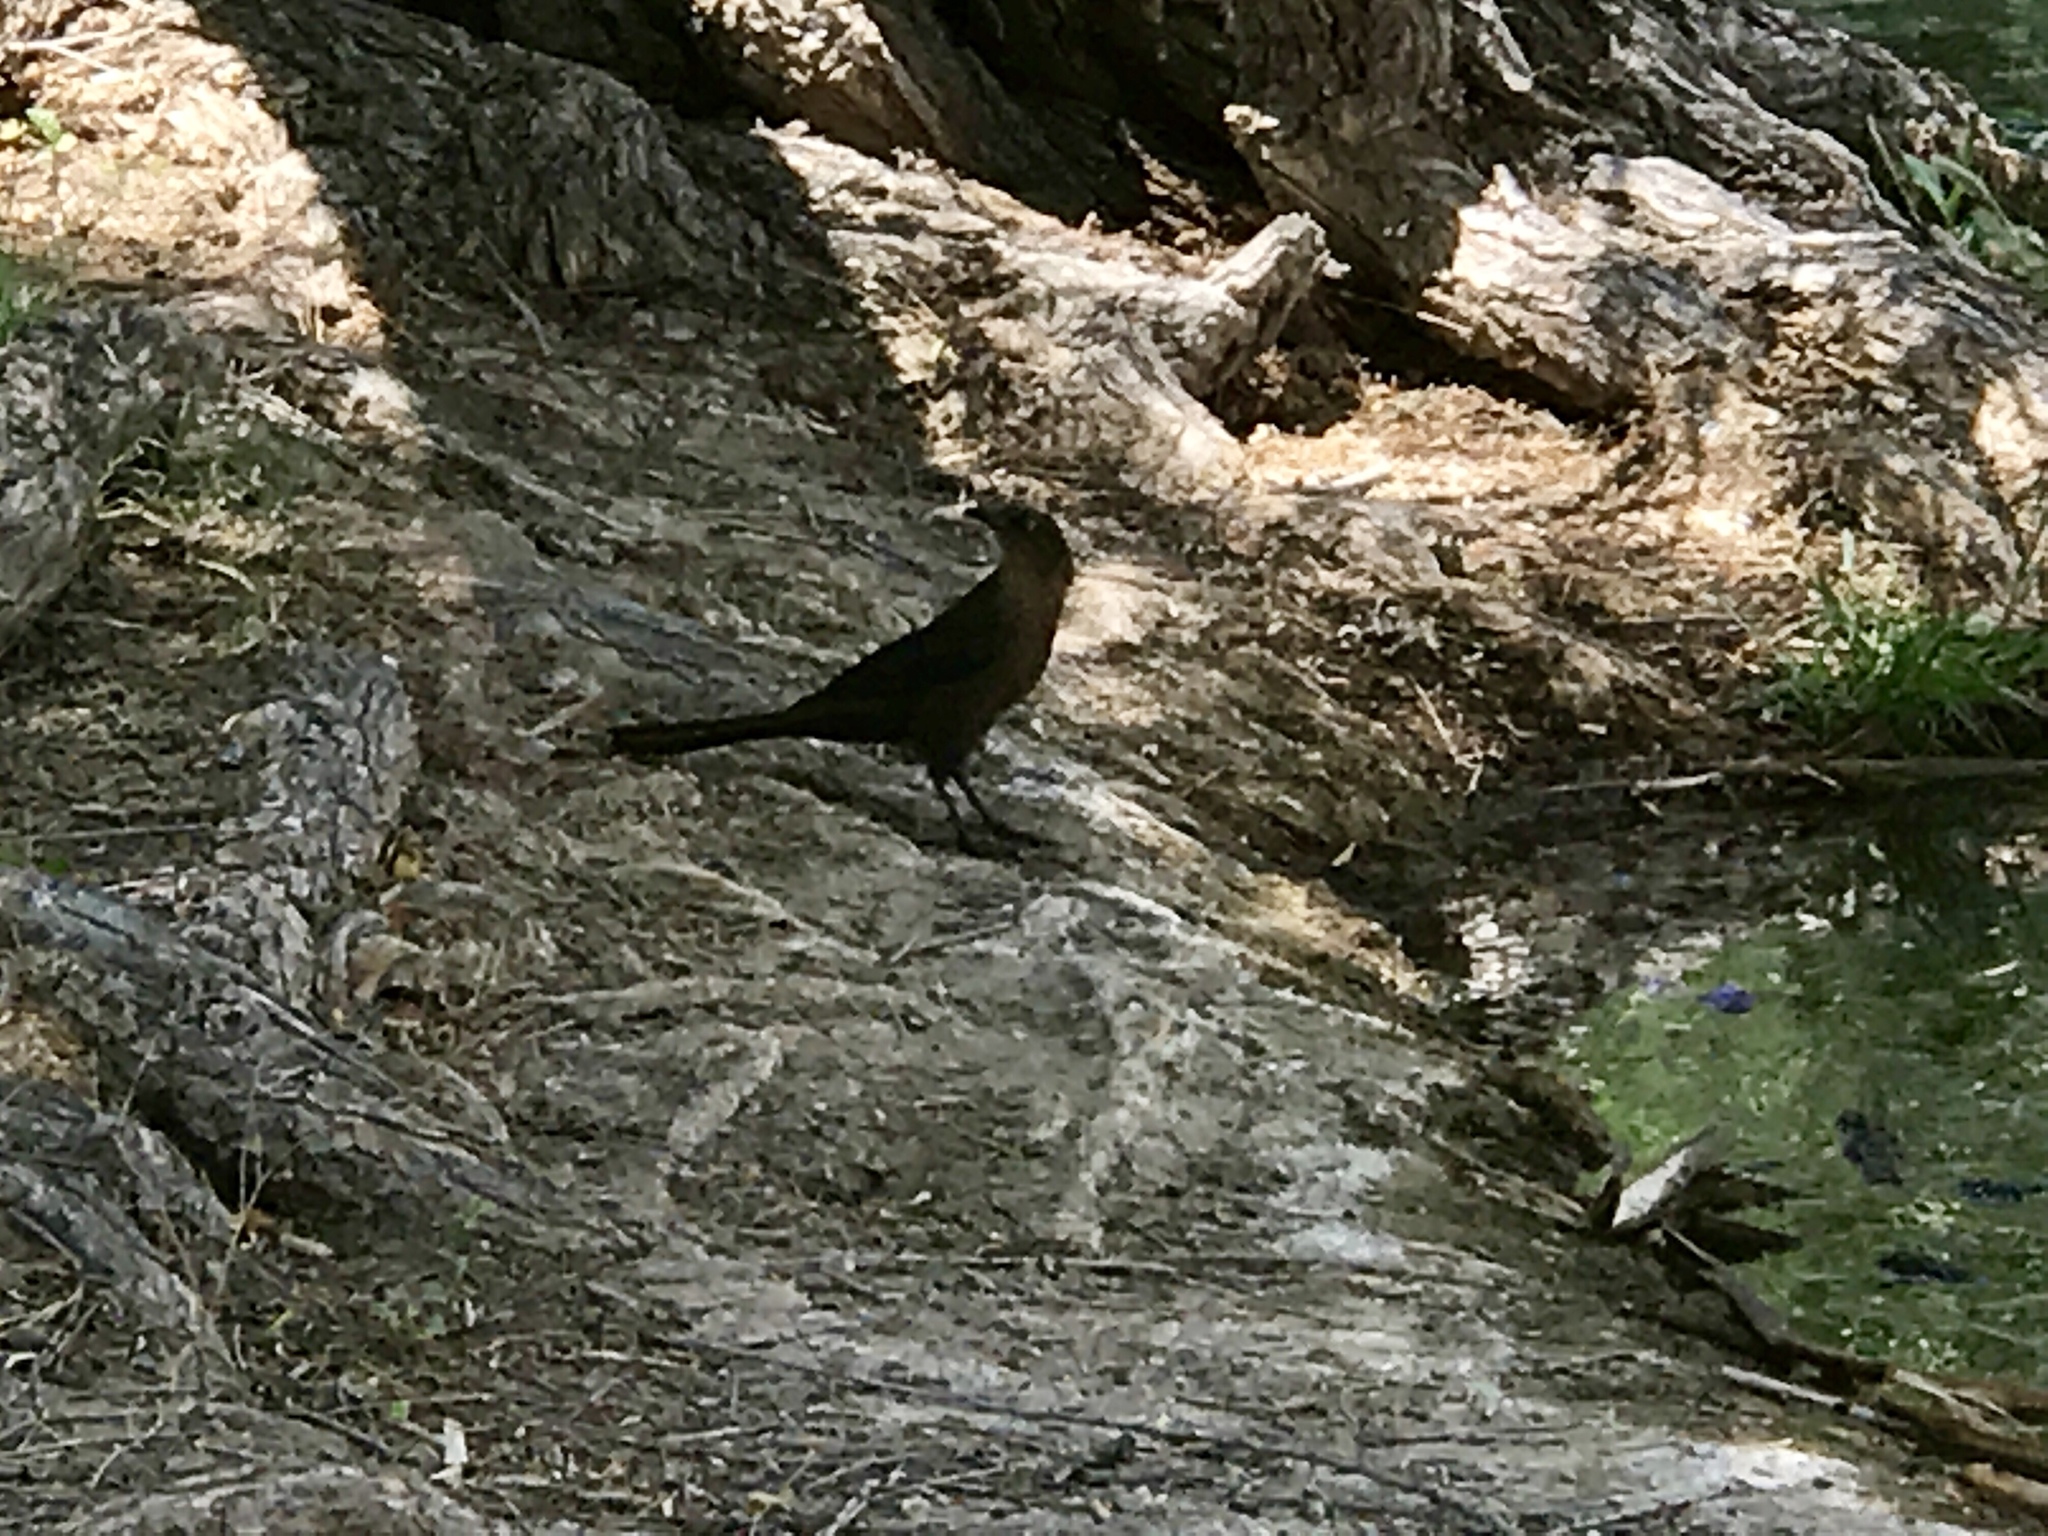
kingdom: Animalia
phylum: Chordata
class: Aves
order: Passeriformes
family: Icteridae
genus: Quiscalus
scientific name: Quiscalus mexicanus
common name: Great-tailed grackle
